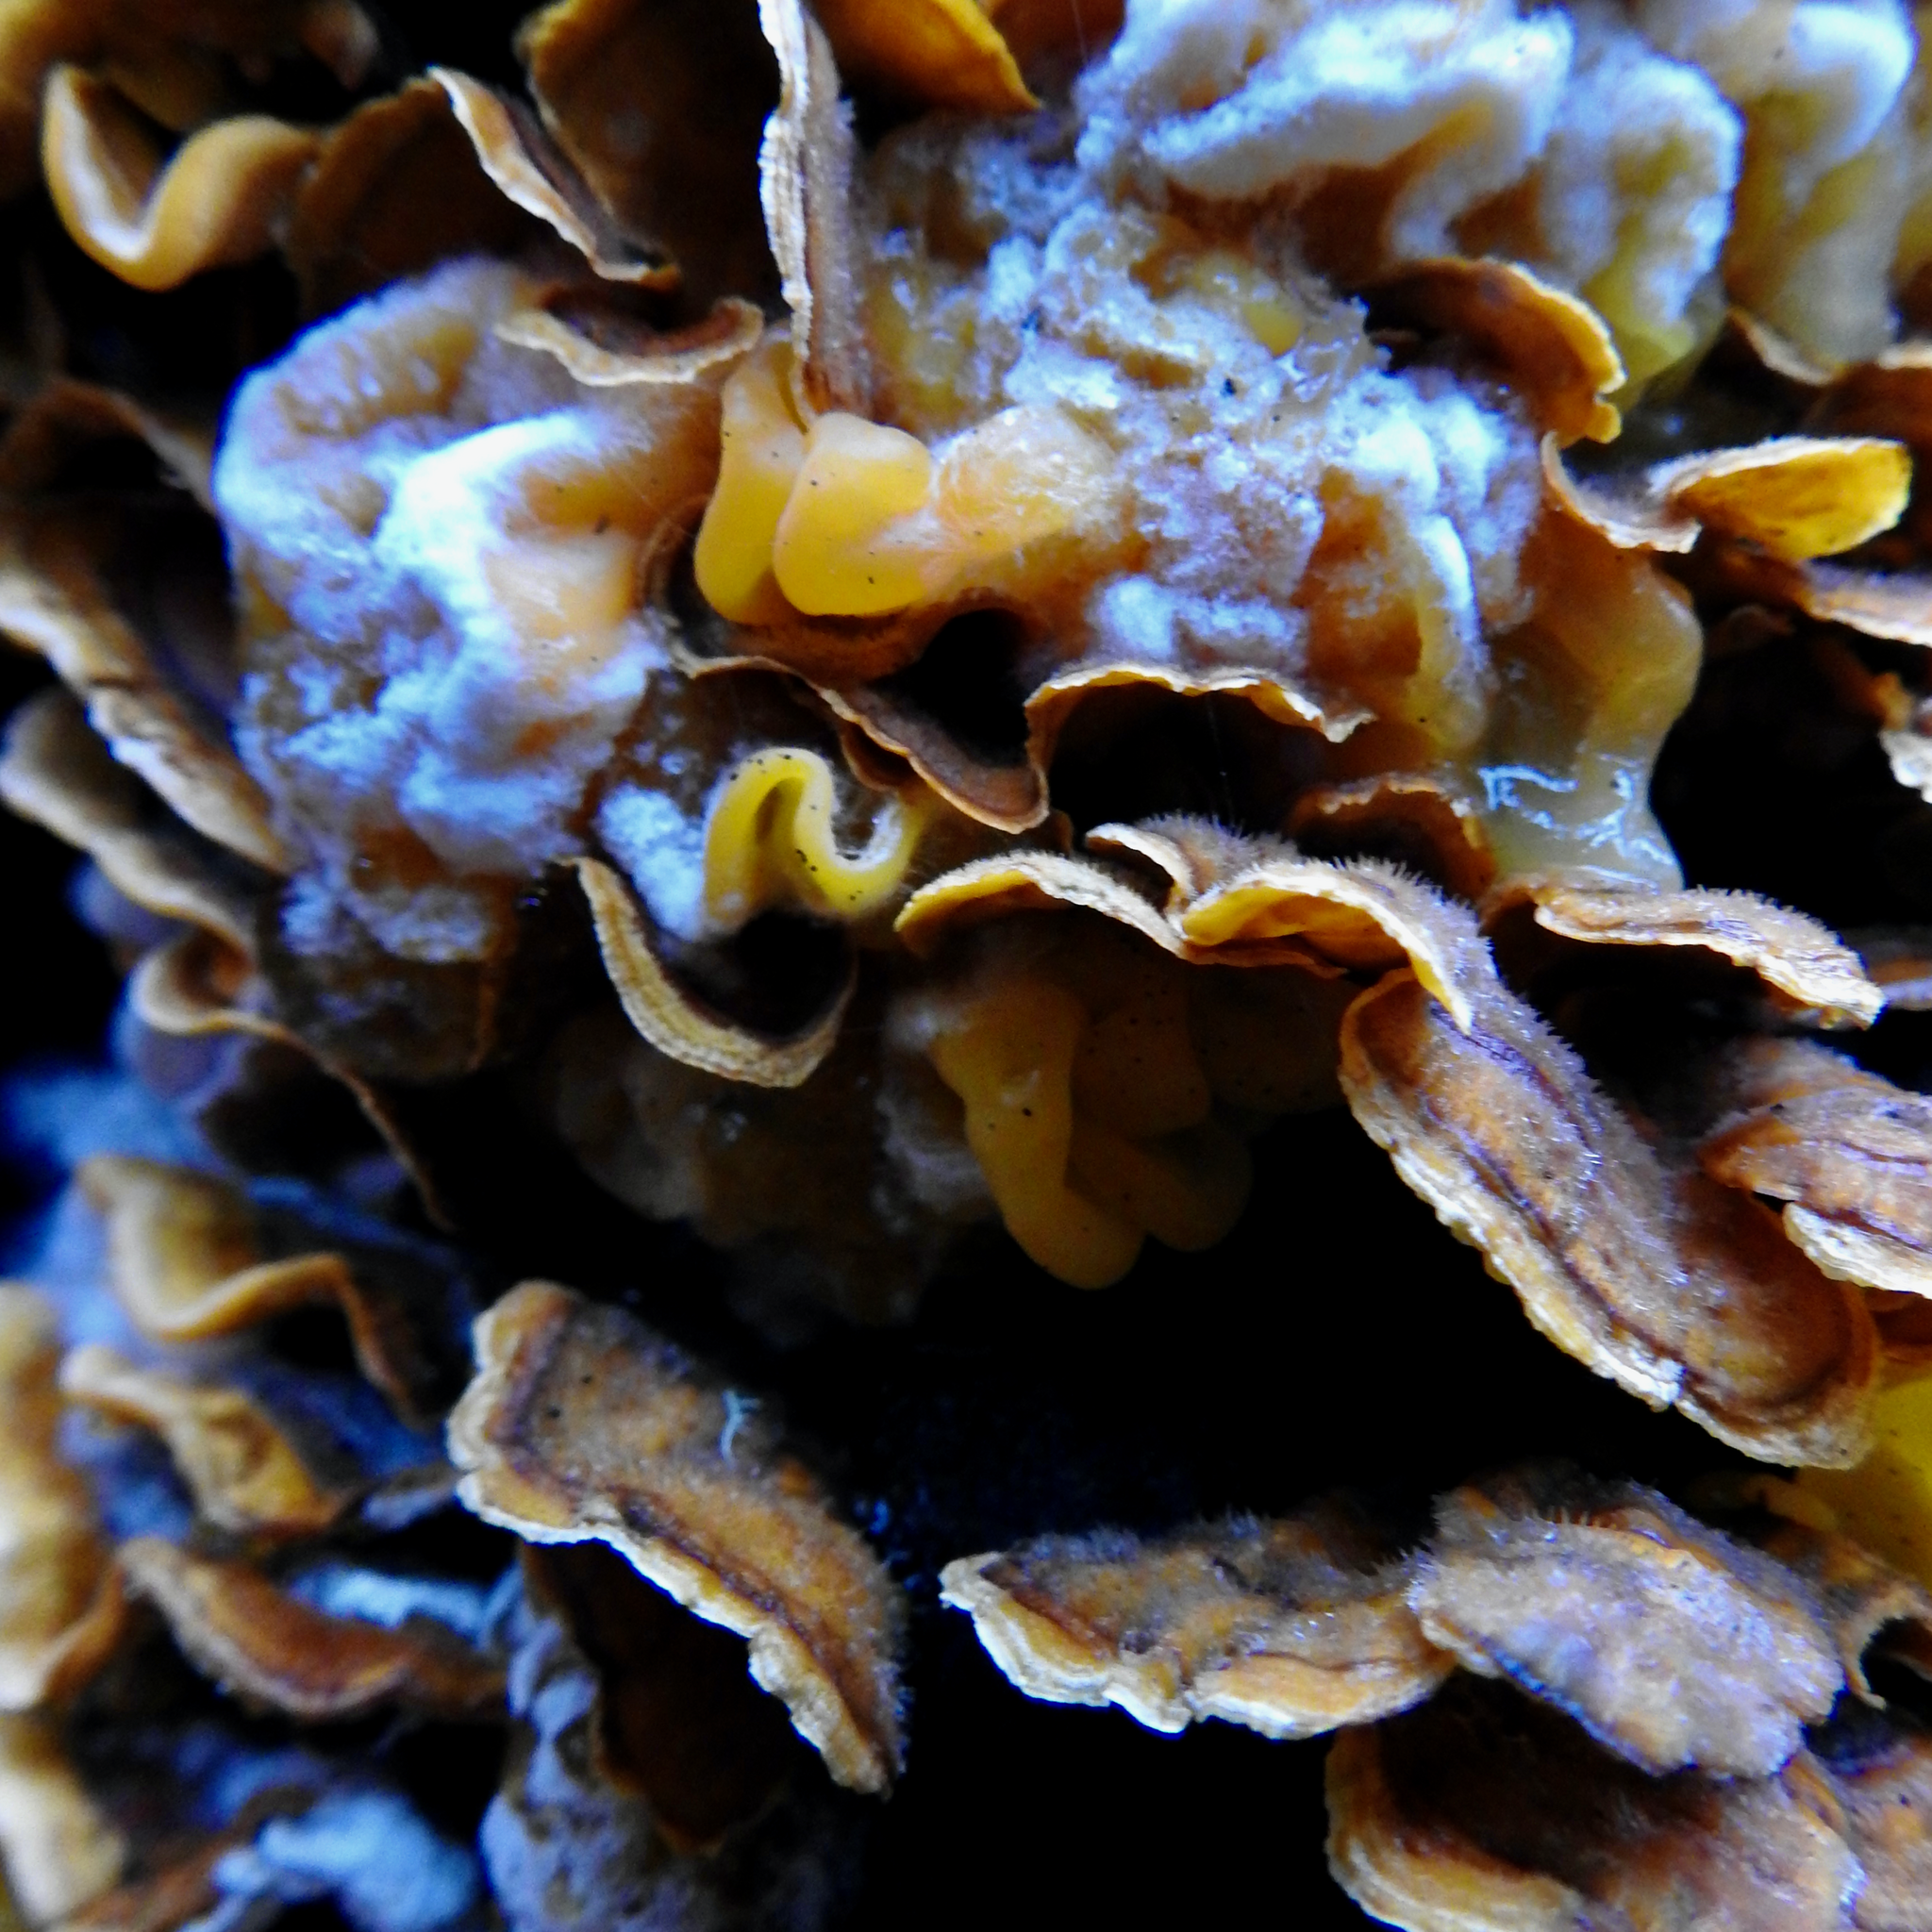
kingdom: Fungi
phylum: Basidiomycota
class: Tremellomycetes
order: Tremellales
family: Naemateliaceae
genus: Naematelia
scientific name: Naematelia aurantia
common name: Golden ear
